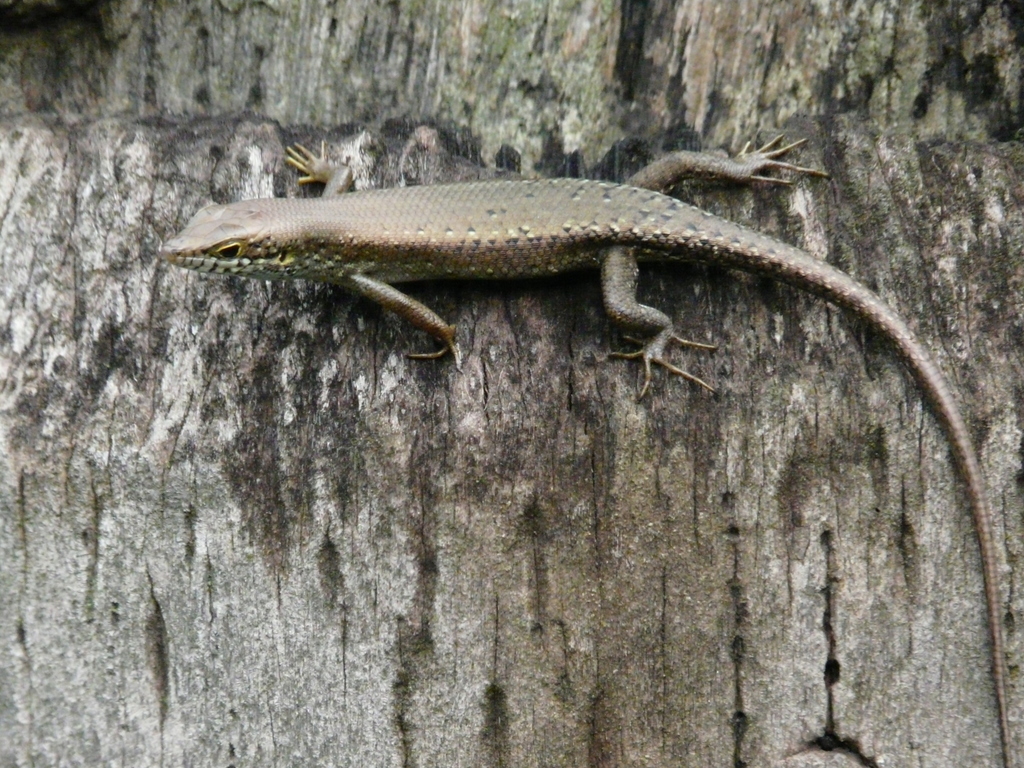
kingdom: Animalia
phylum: Chordata
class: Squamata
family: Scincidae
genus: Trachylepis
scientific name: Trachylepis maculilabris
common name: Speckle-lipped mabuya
